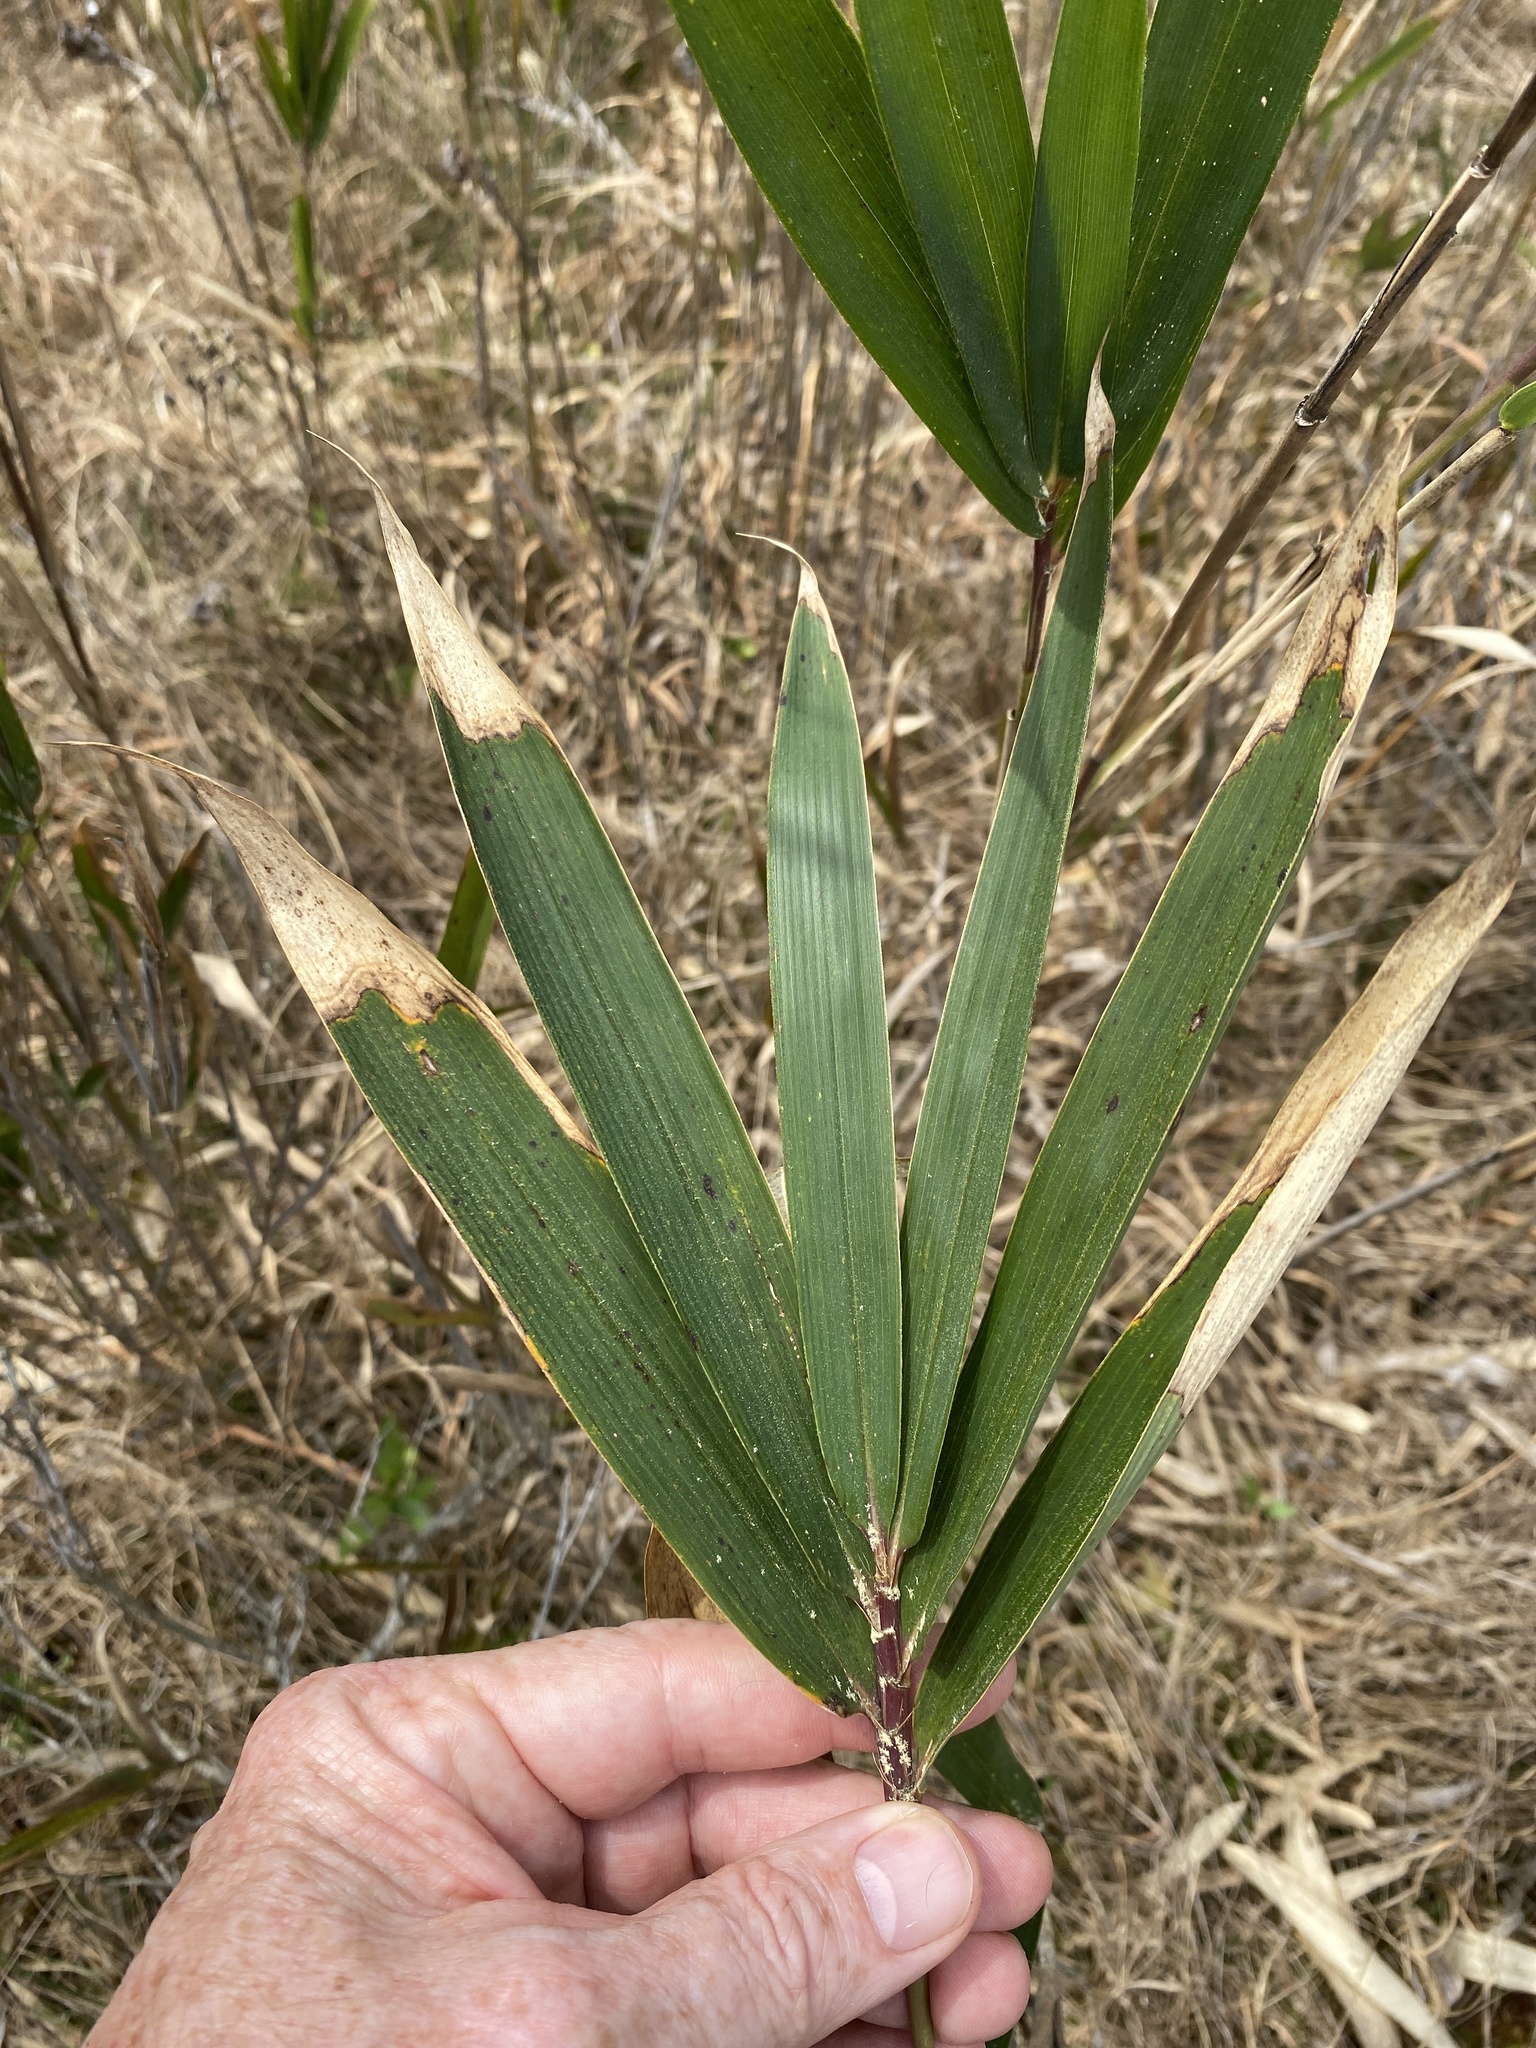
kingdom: Plantae
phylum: Tracheophyta
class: Liliopsida
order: Poales
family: Poaceae
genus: Arundinaria
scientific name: Arundinaria tecta
